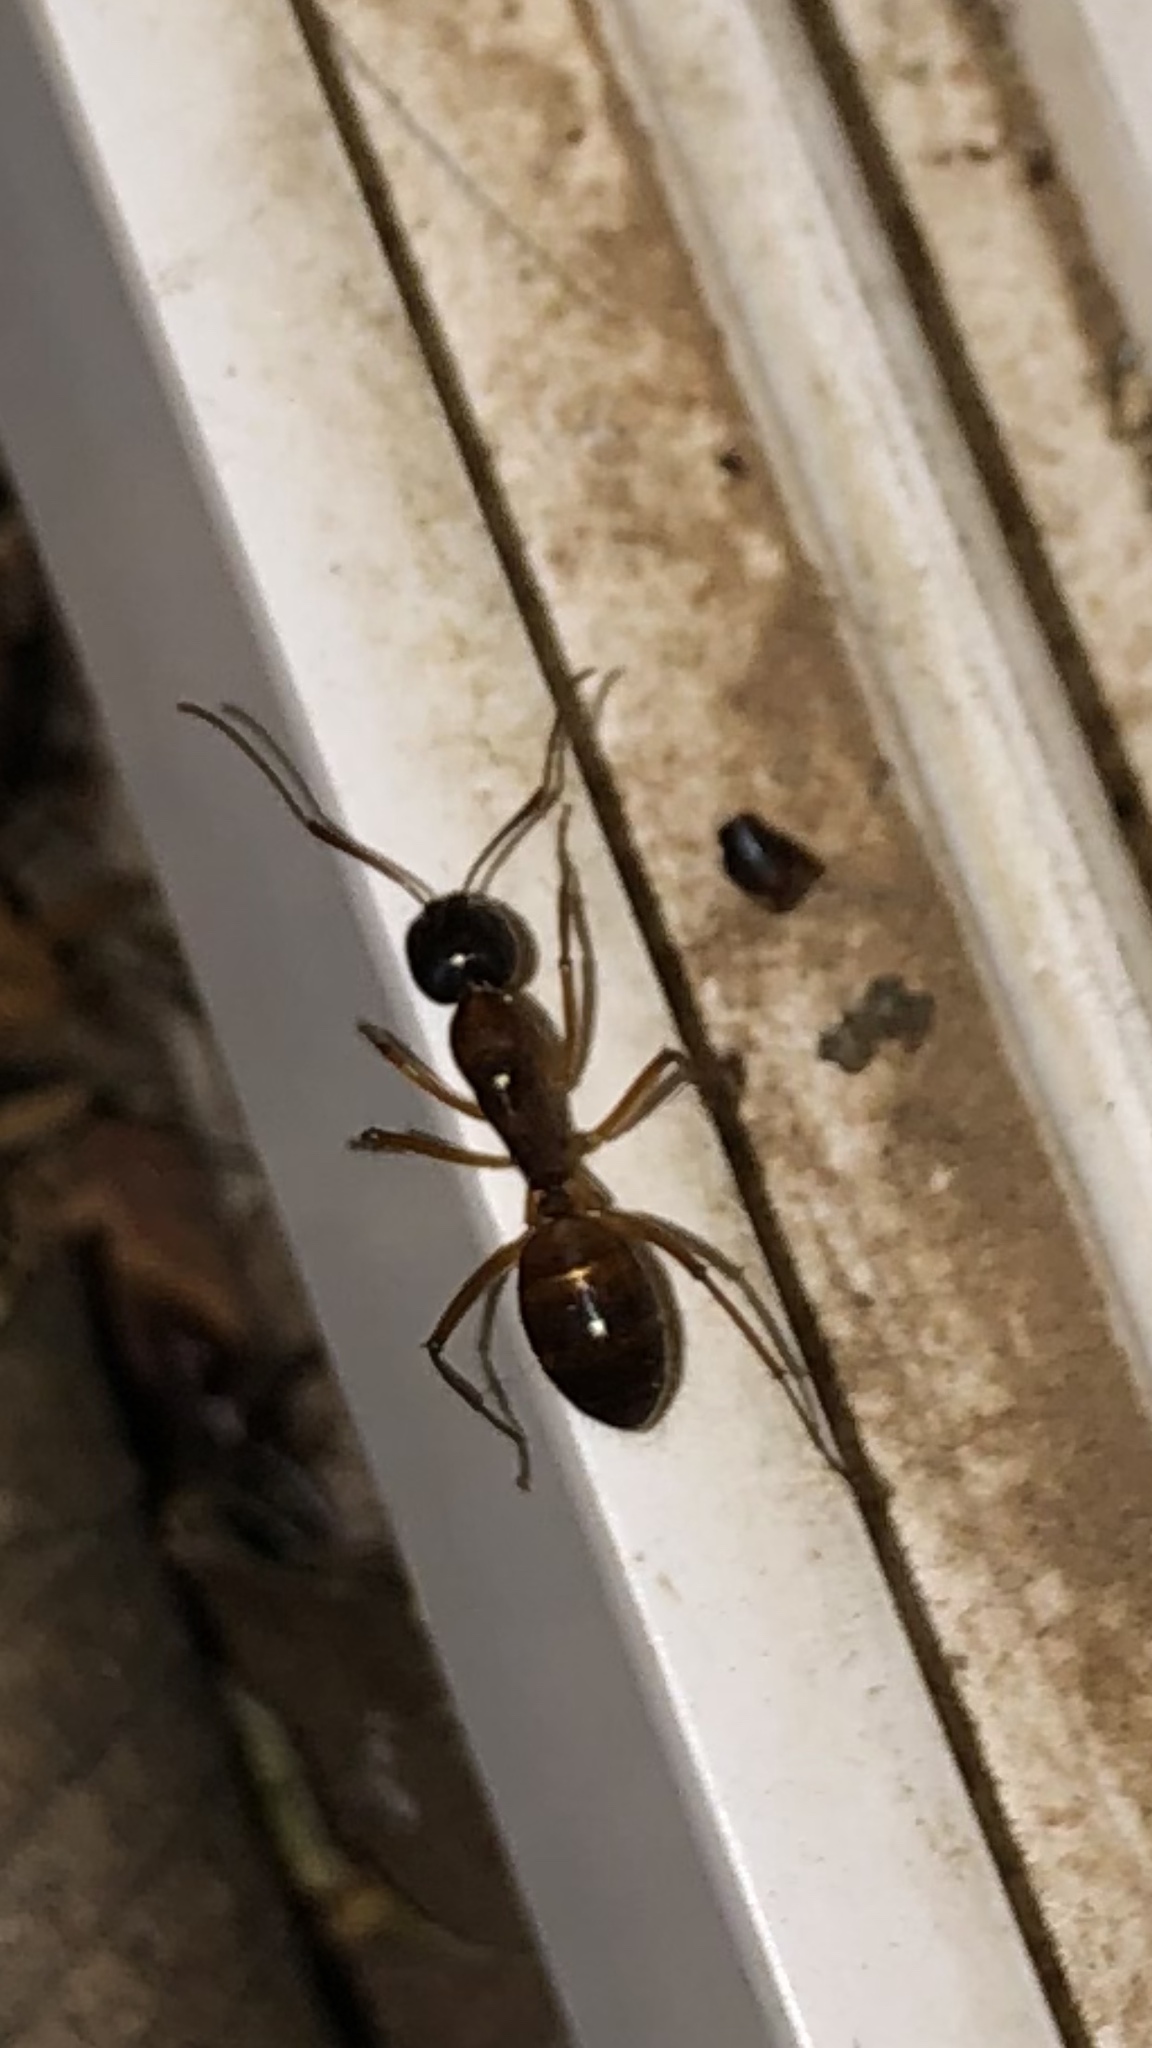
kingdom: Animalia
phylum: Arthropoda
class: Insecta
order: Hymenoptera
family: Formicidae
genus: Camponotus
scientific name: Camponotus americanus
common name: American carpenter ant
